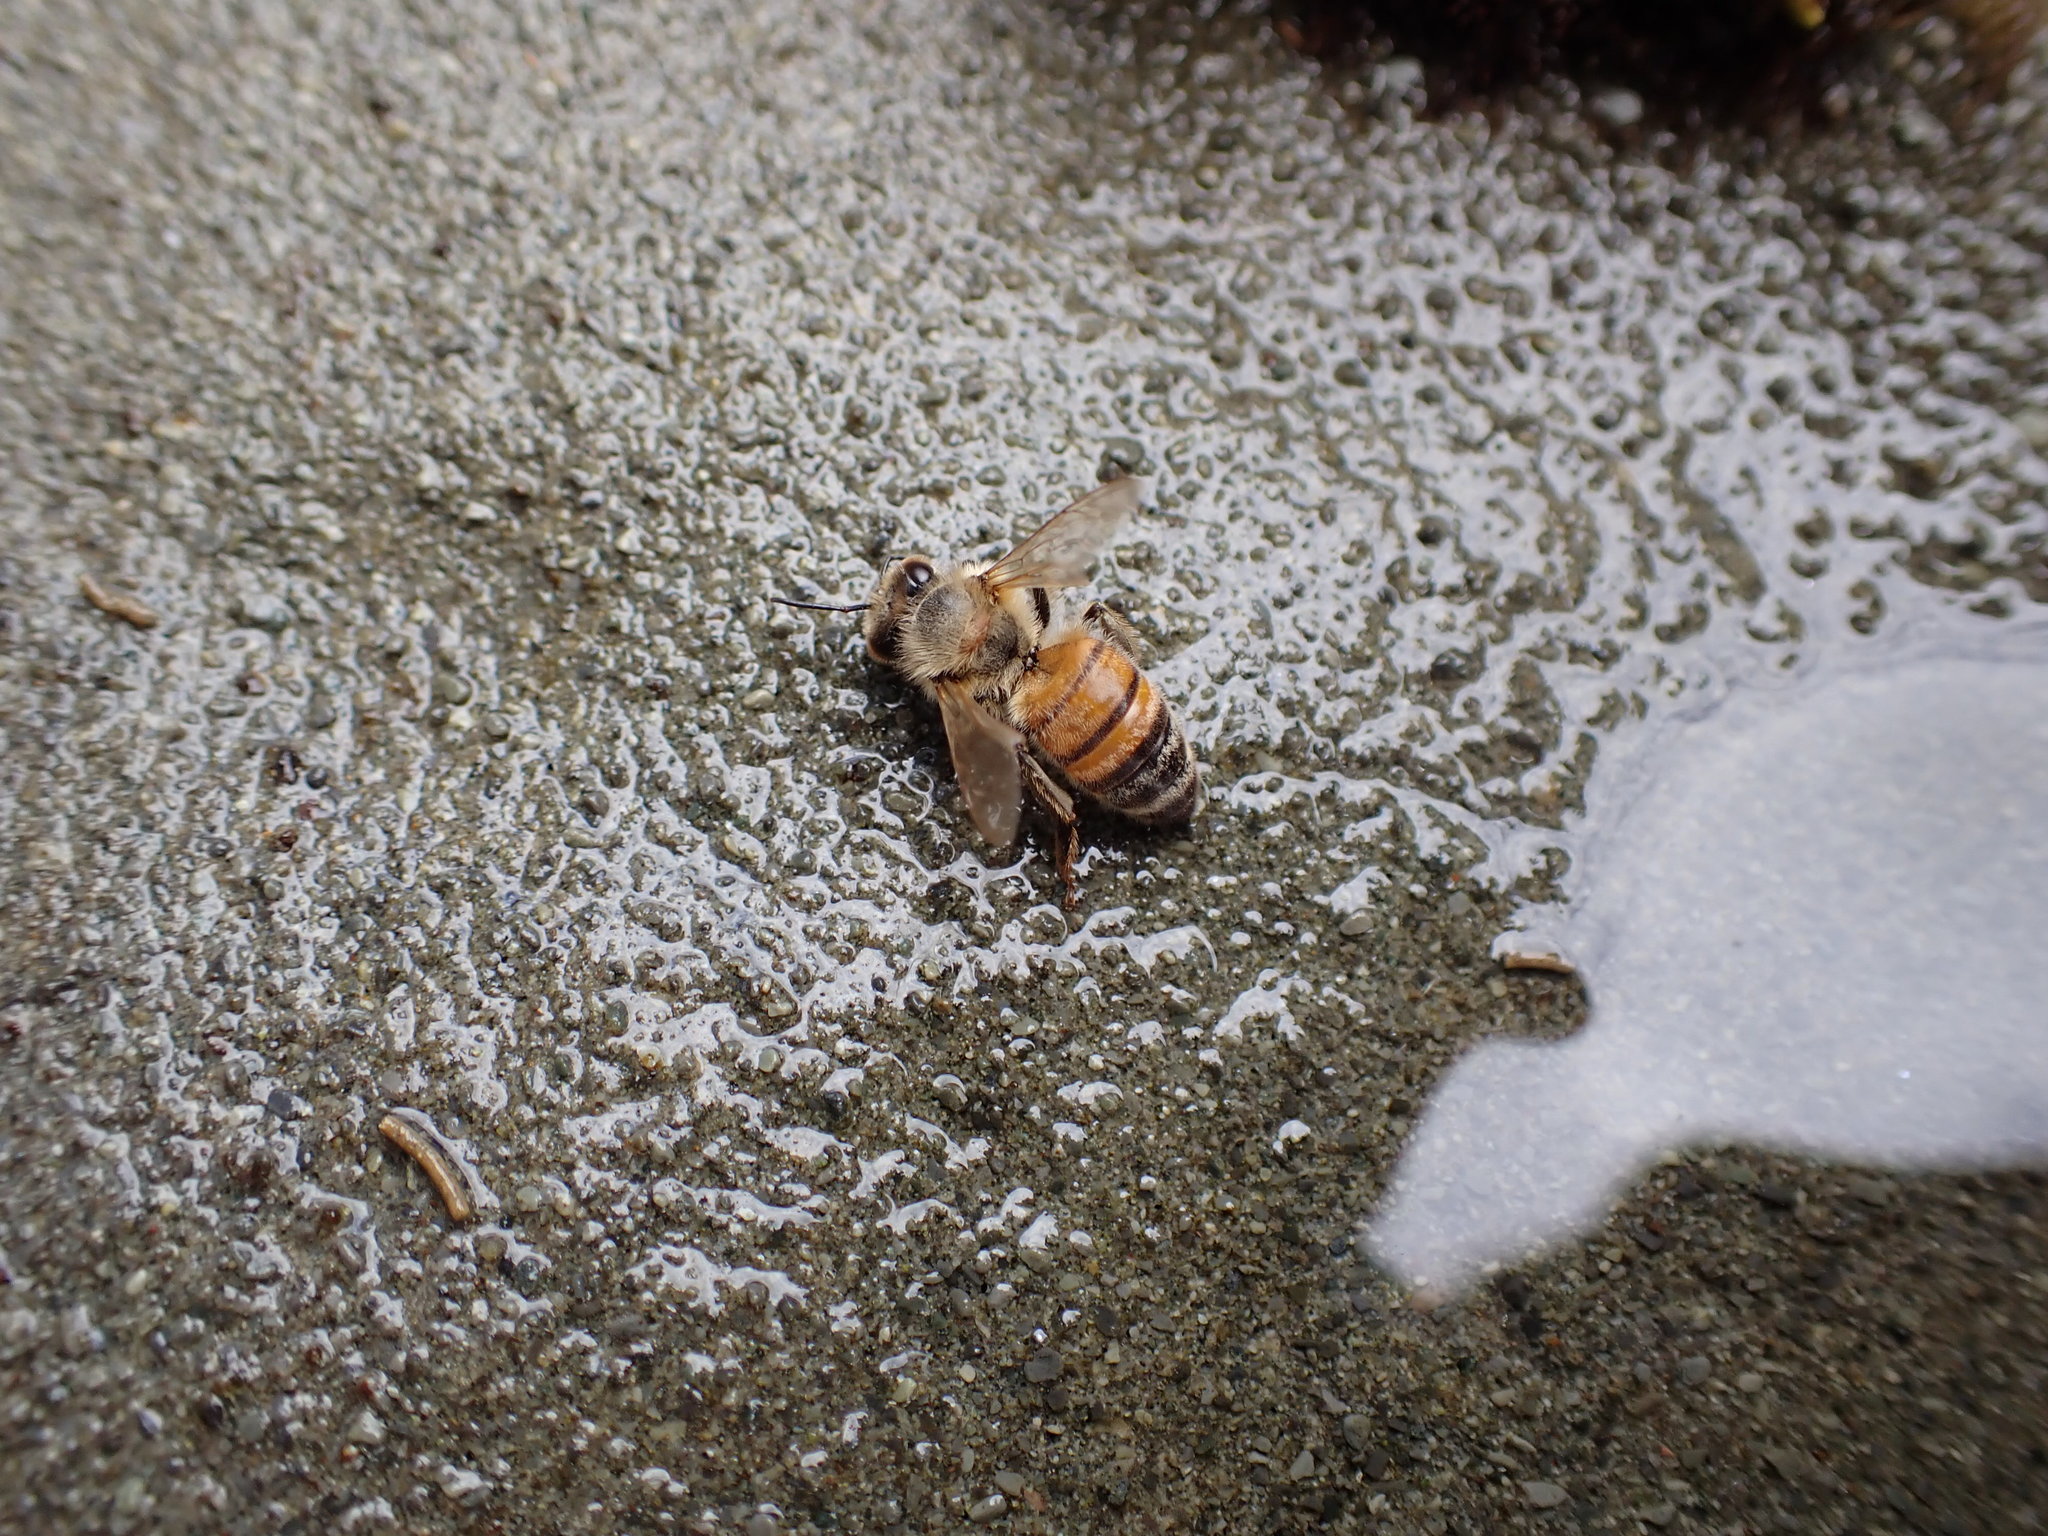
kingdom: Animalia
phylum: Arthropoda
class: Insecta
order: Hymenoptera
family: Apidae
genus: Apis
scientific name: Apis mellifera
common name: Honey bee
